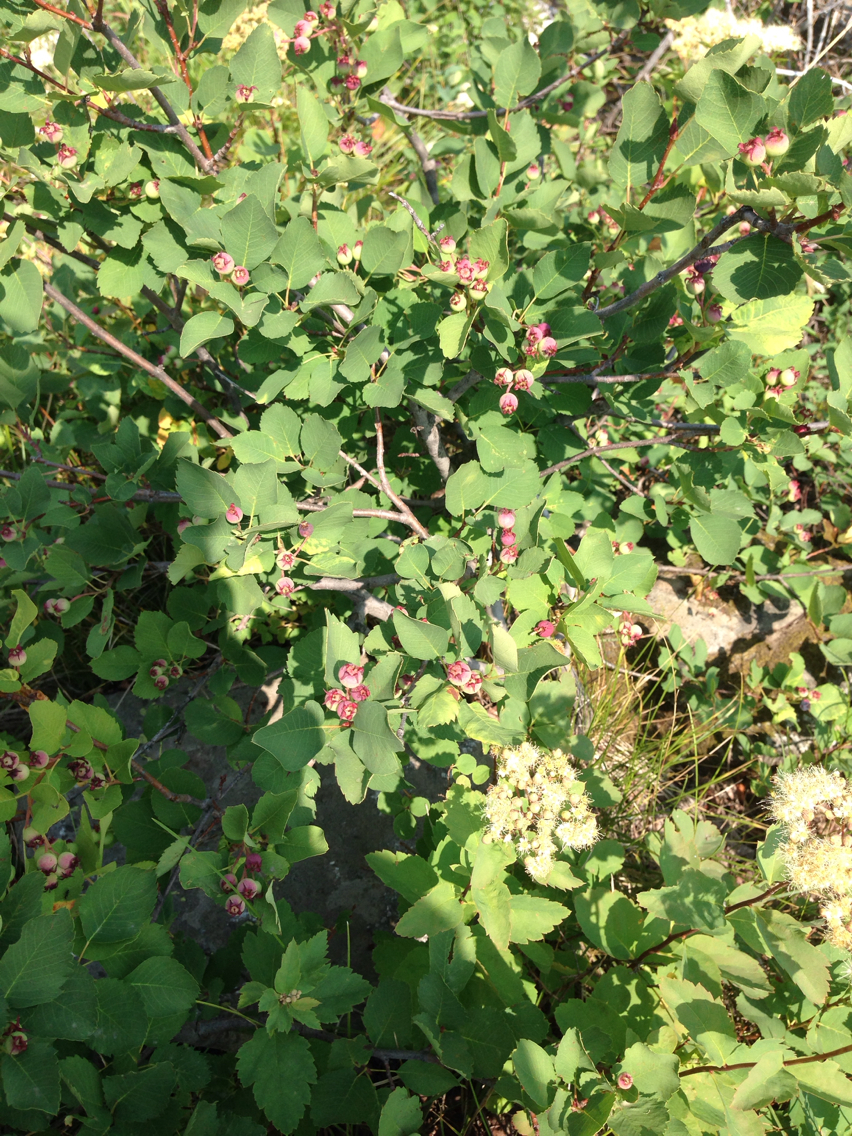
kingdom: Plantae
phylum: Tracheophyta
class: Magnoliopsida
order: Rosales
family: Rosaceae
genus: Amelanchier
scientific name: Amelanchier alnifolia
